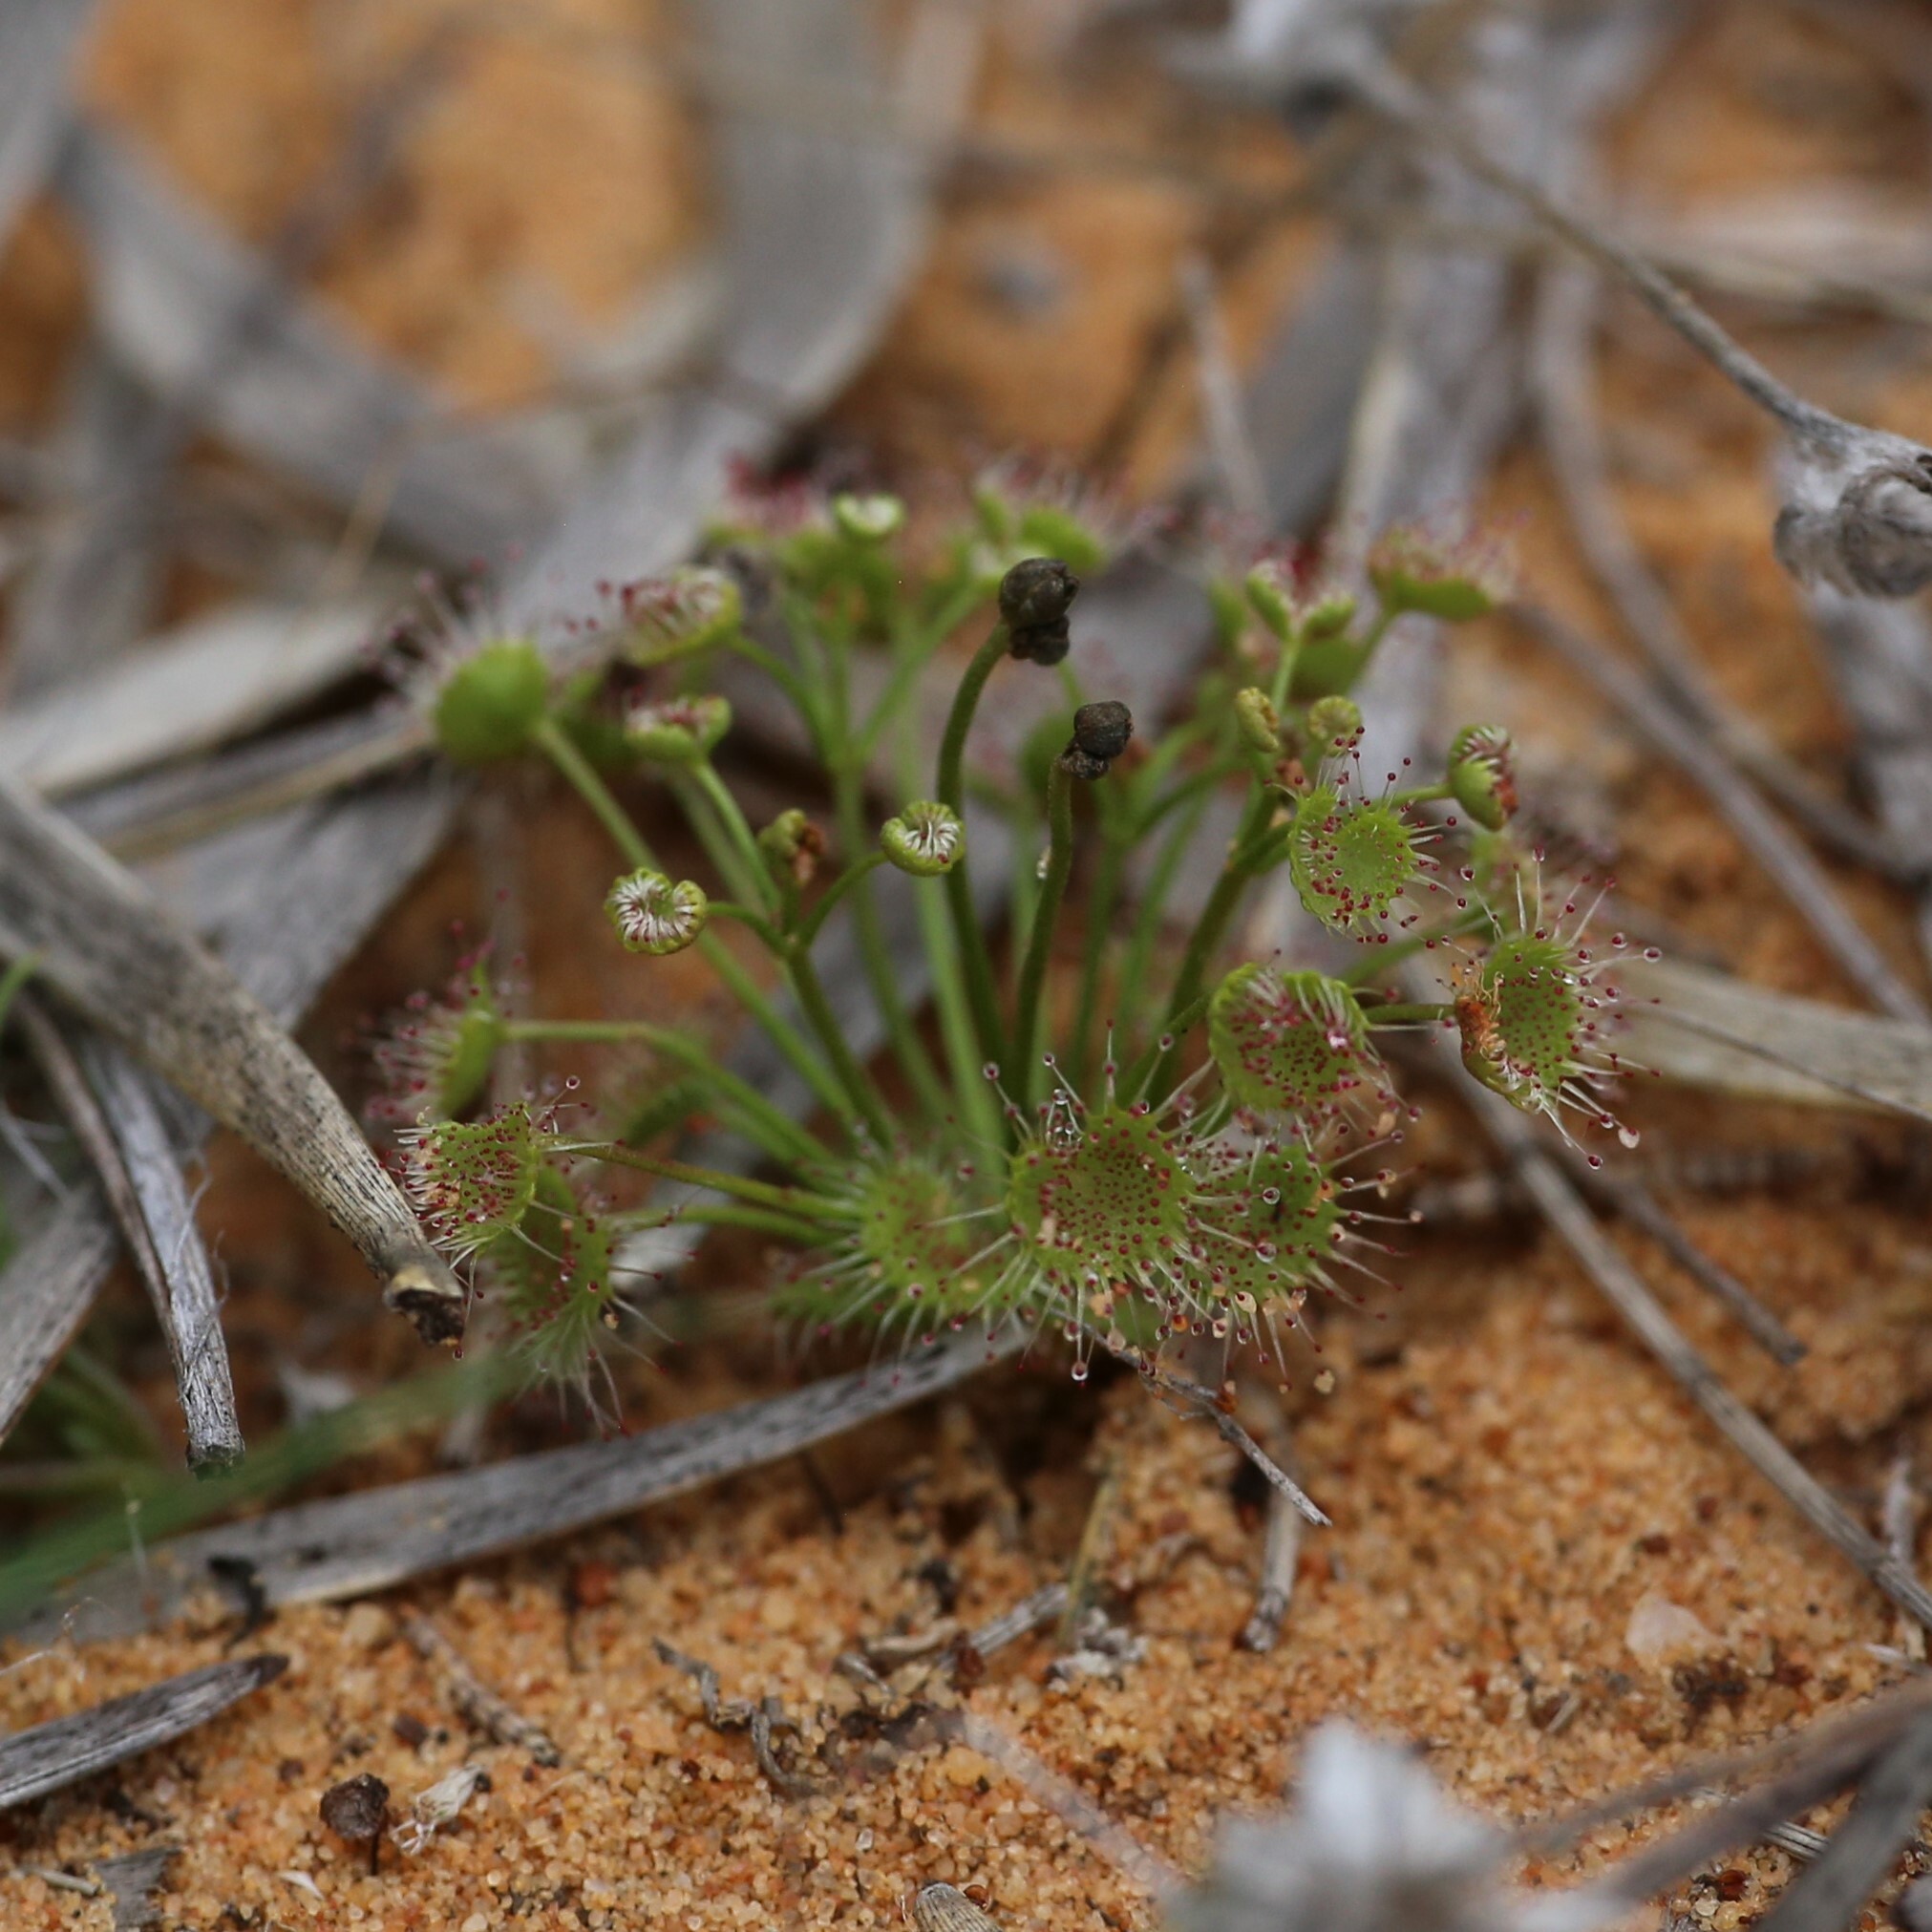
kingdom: Plantae
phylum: Tracheophyta
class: Magnoliopsida
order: Caryophyllales
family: Droseraceae
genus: Drosera
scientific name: Drosera stolonifera
